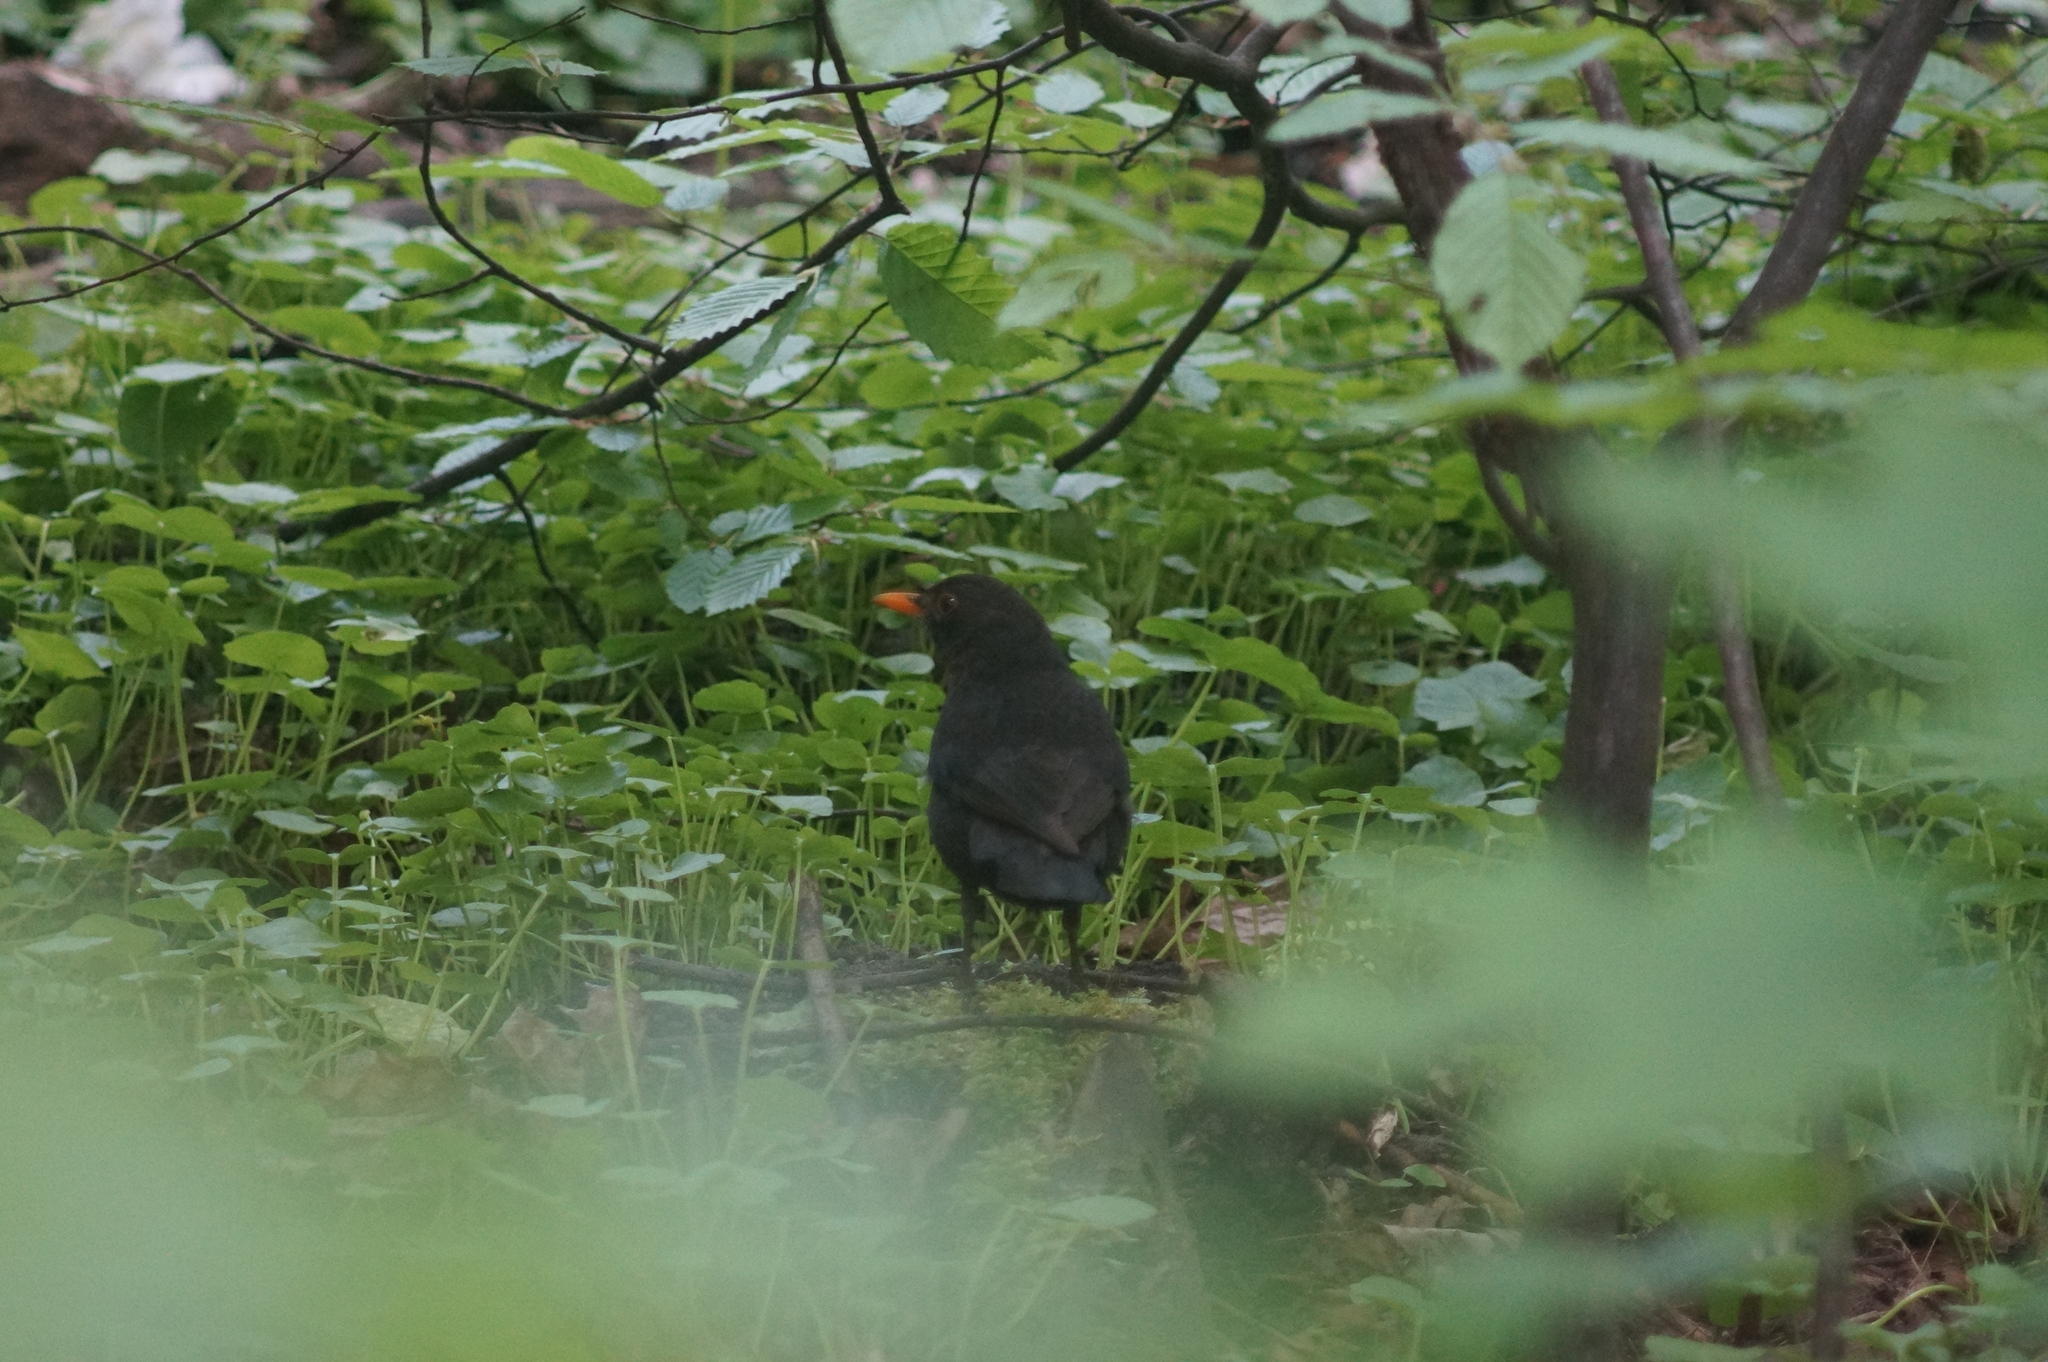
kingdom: Animalia
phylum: Chordata
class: Aves
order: Passeriformes
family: Turdidae
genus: Turdus
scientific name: Turdus merula
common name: Common blackbird
